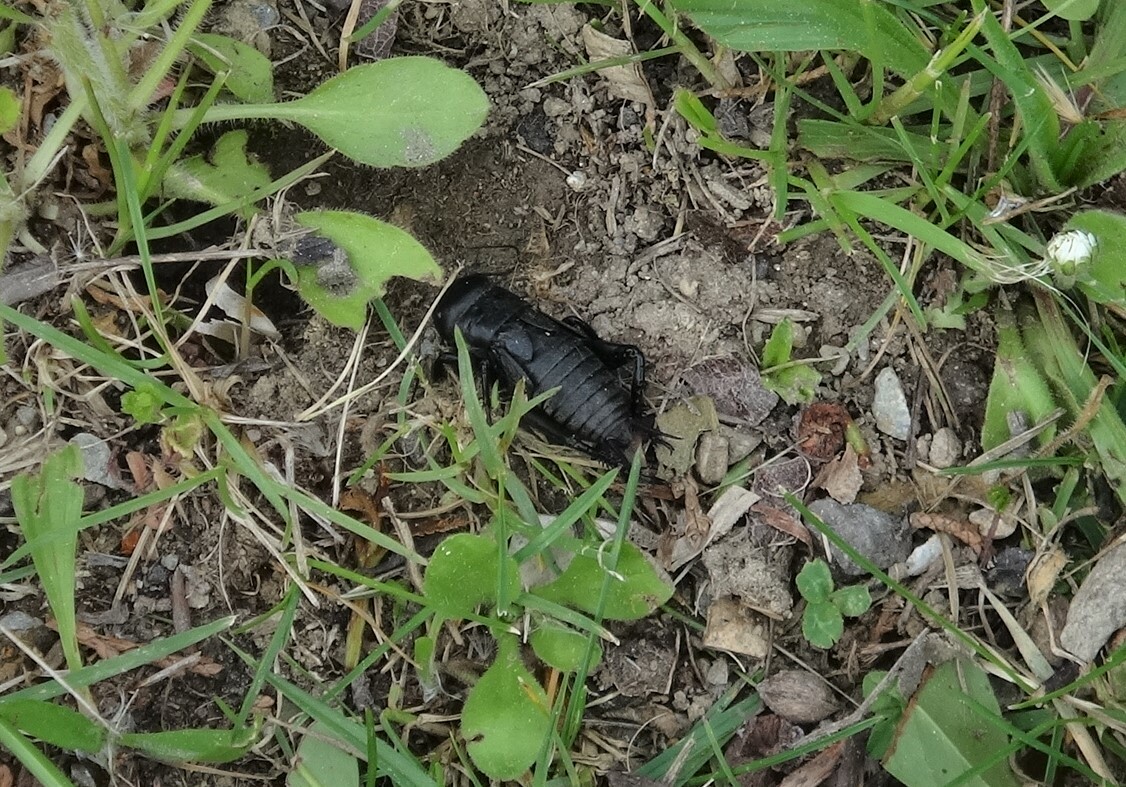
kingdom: Animalia
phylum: Arthropoda
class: Insecta
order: Orthoptera
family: Gryllidae
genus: Gryllus
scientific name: Gryllus campestris
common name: Field cricket
